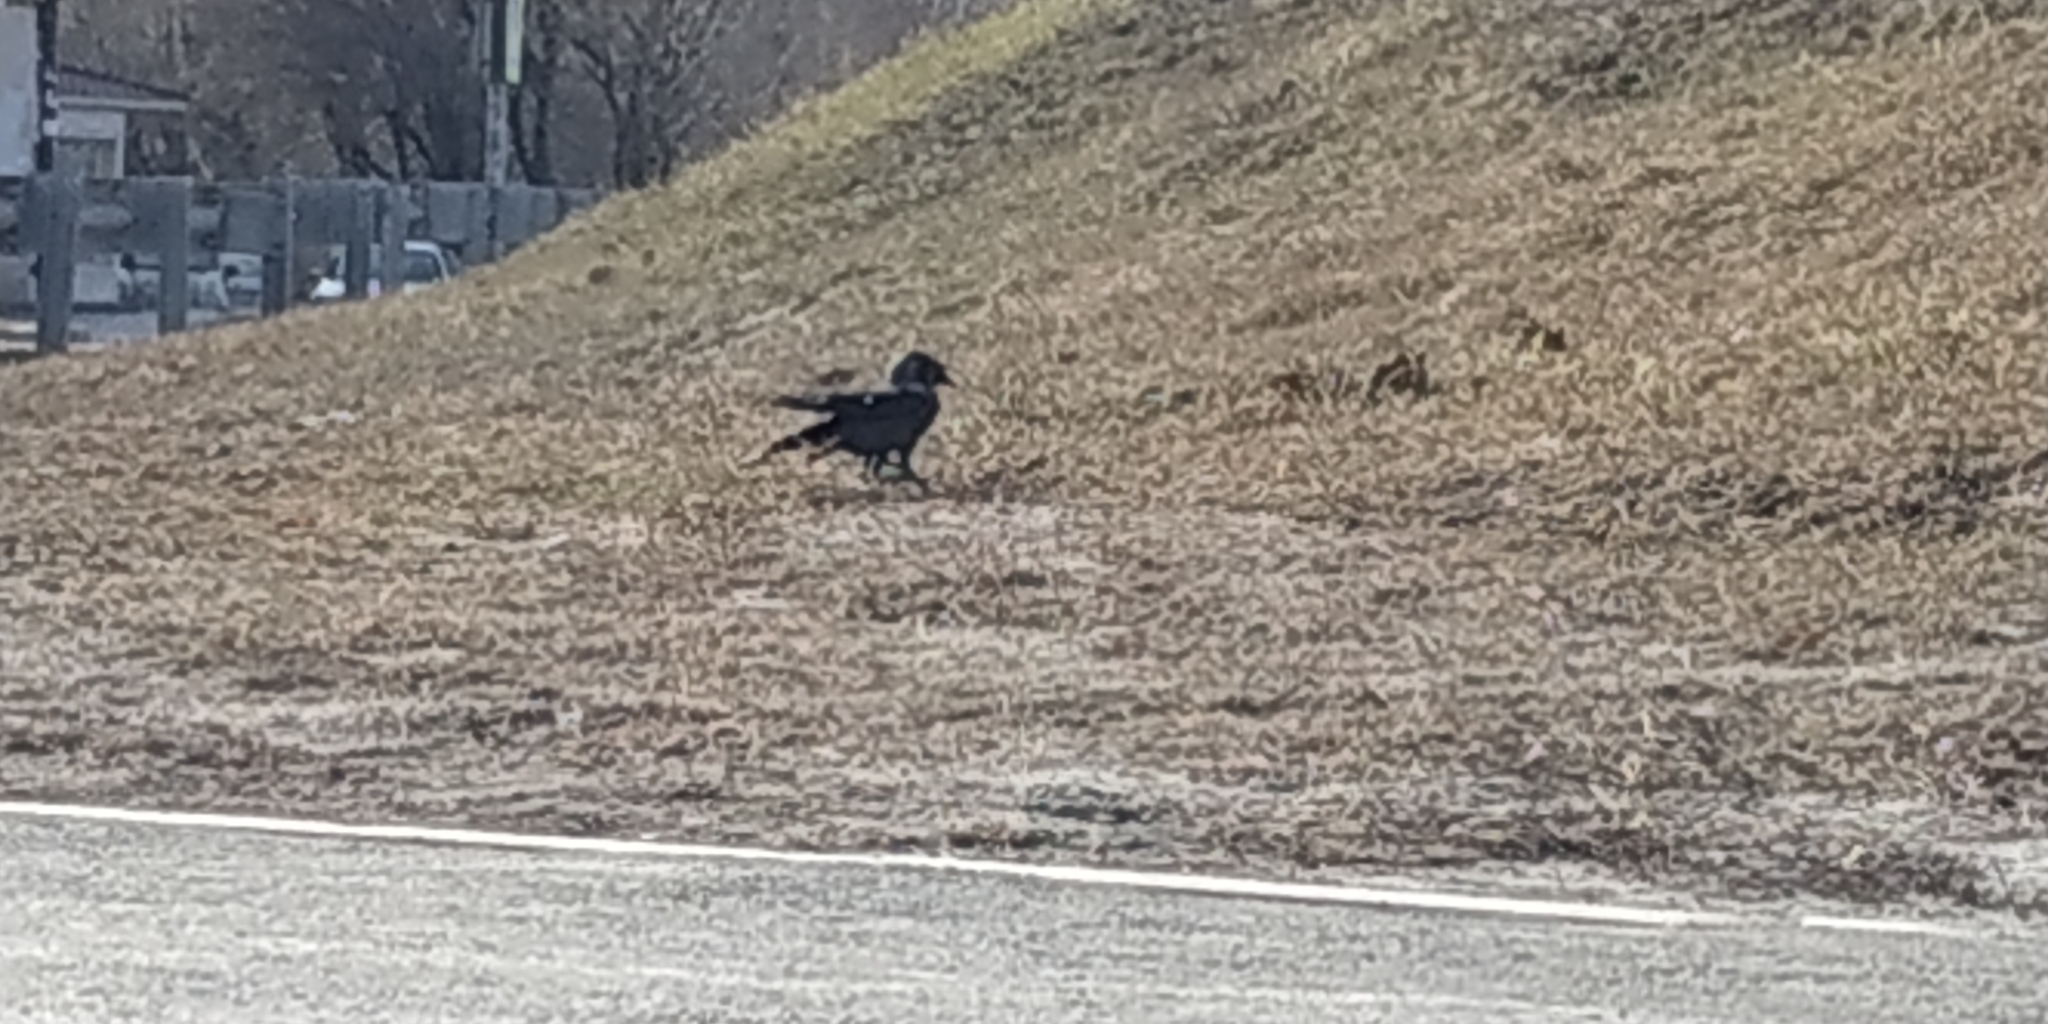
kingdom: Animalia
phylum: Chordata
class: Aves
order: Passeriformes
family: Corvidae
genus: Coloeus
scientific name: Coloeus monedula
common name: Western jackdaw
